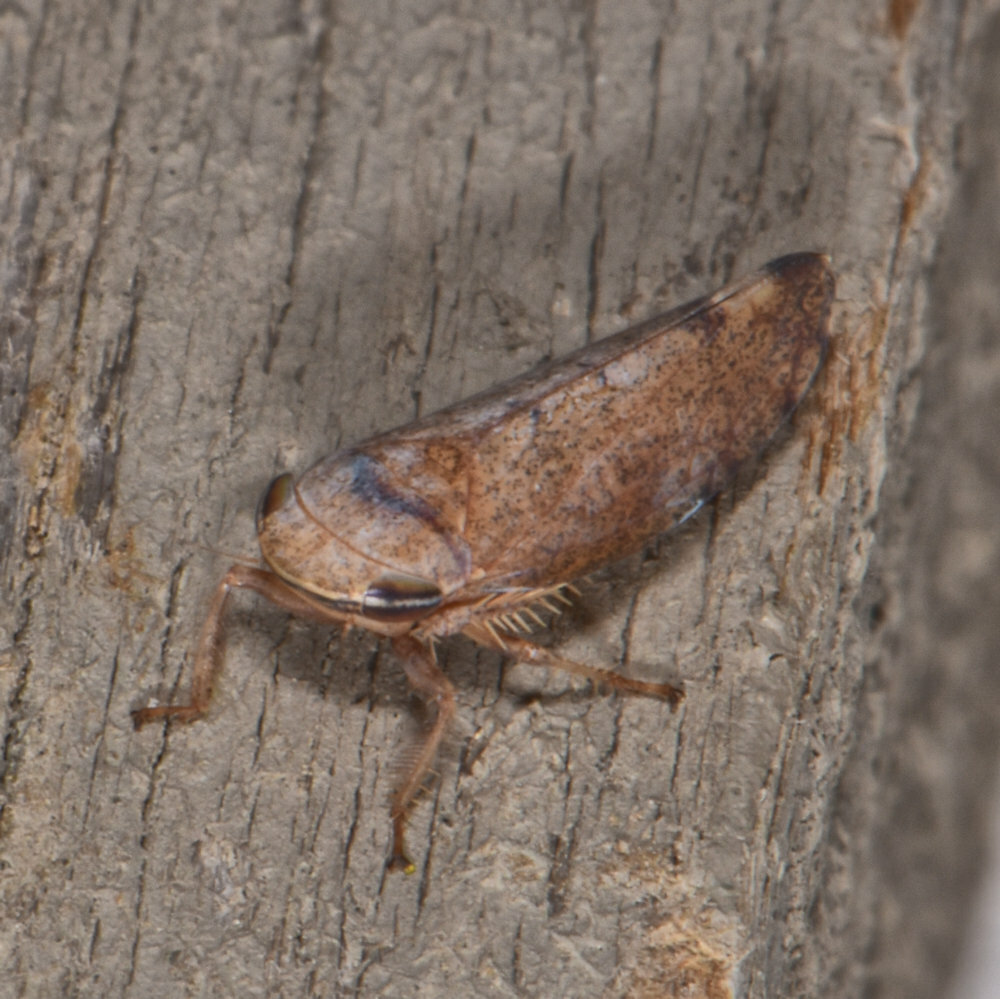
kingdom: Animalia
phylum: Arthropoda
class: Insecta
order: Hemiptera
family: Cicadellidae
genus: Fieberiella
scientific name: Fieberiella florii
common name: Flor’s leafhopper
